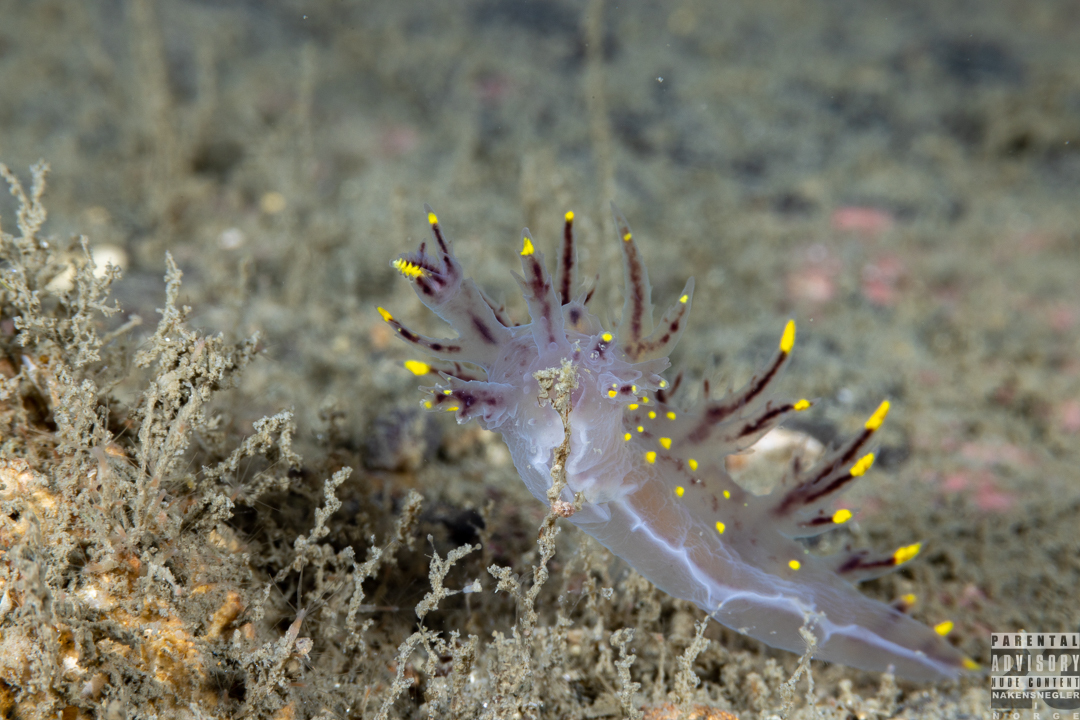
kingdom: Animalia
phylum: Mollusca
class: Gastropoda
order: Nudibranchia
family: Dendronotidae
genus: Dendronotus
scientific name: Dendronotus arcticus
